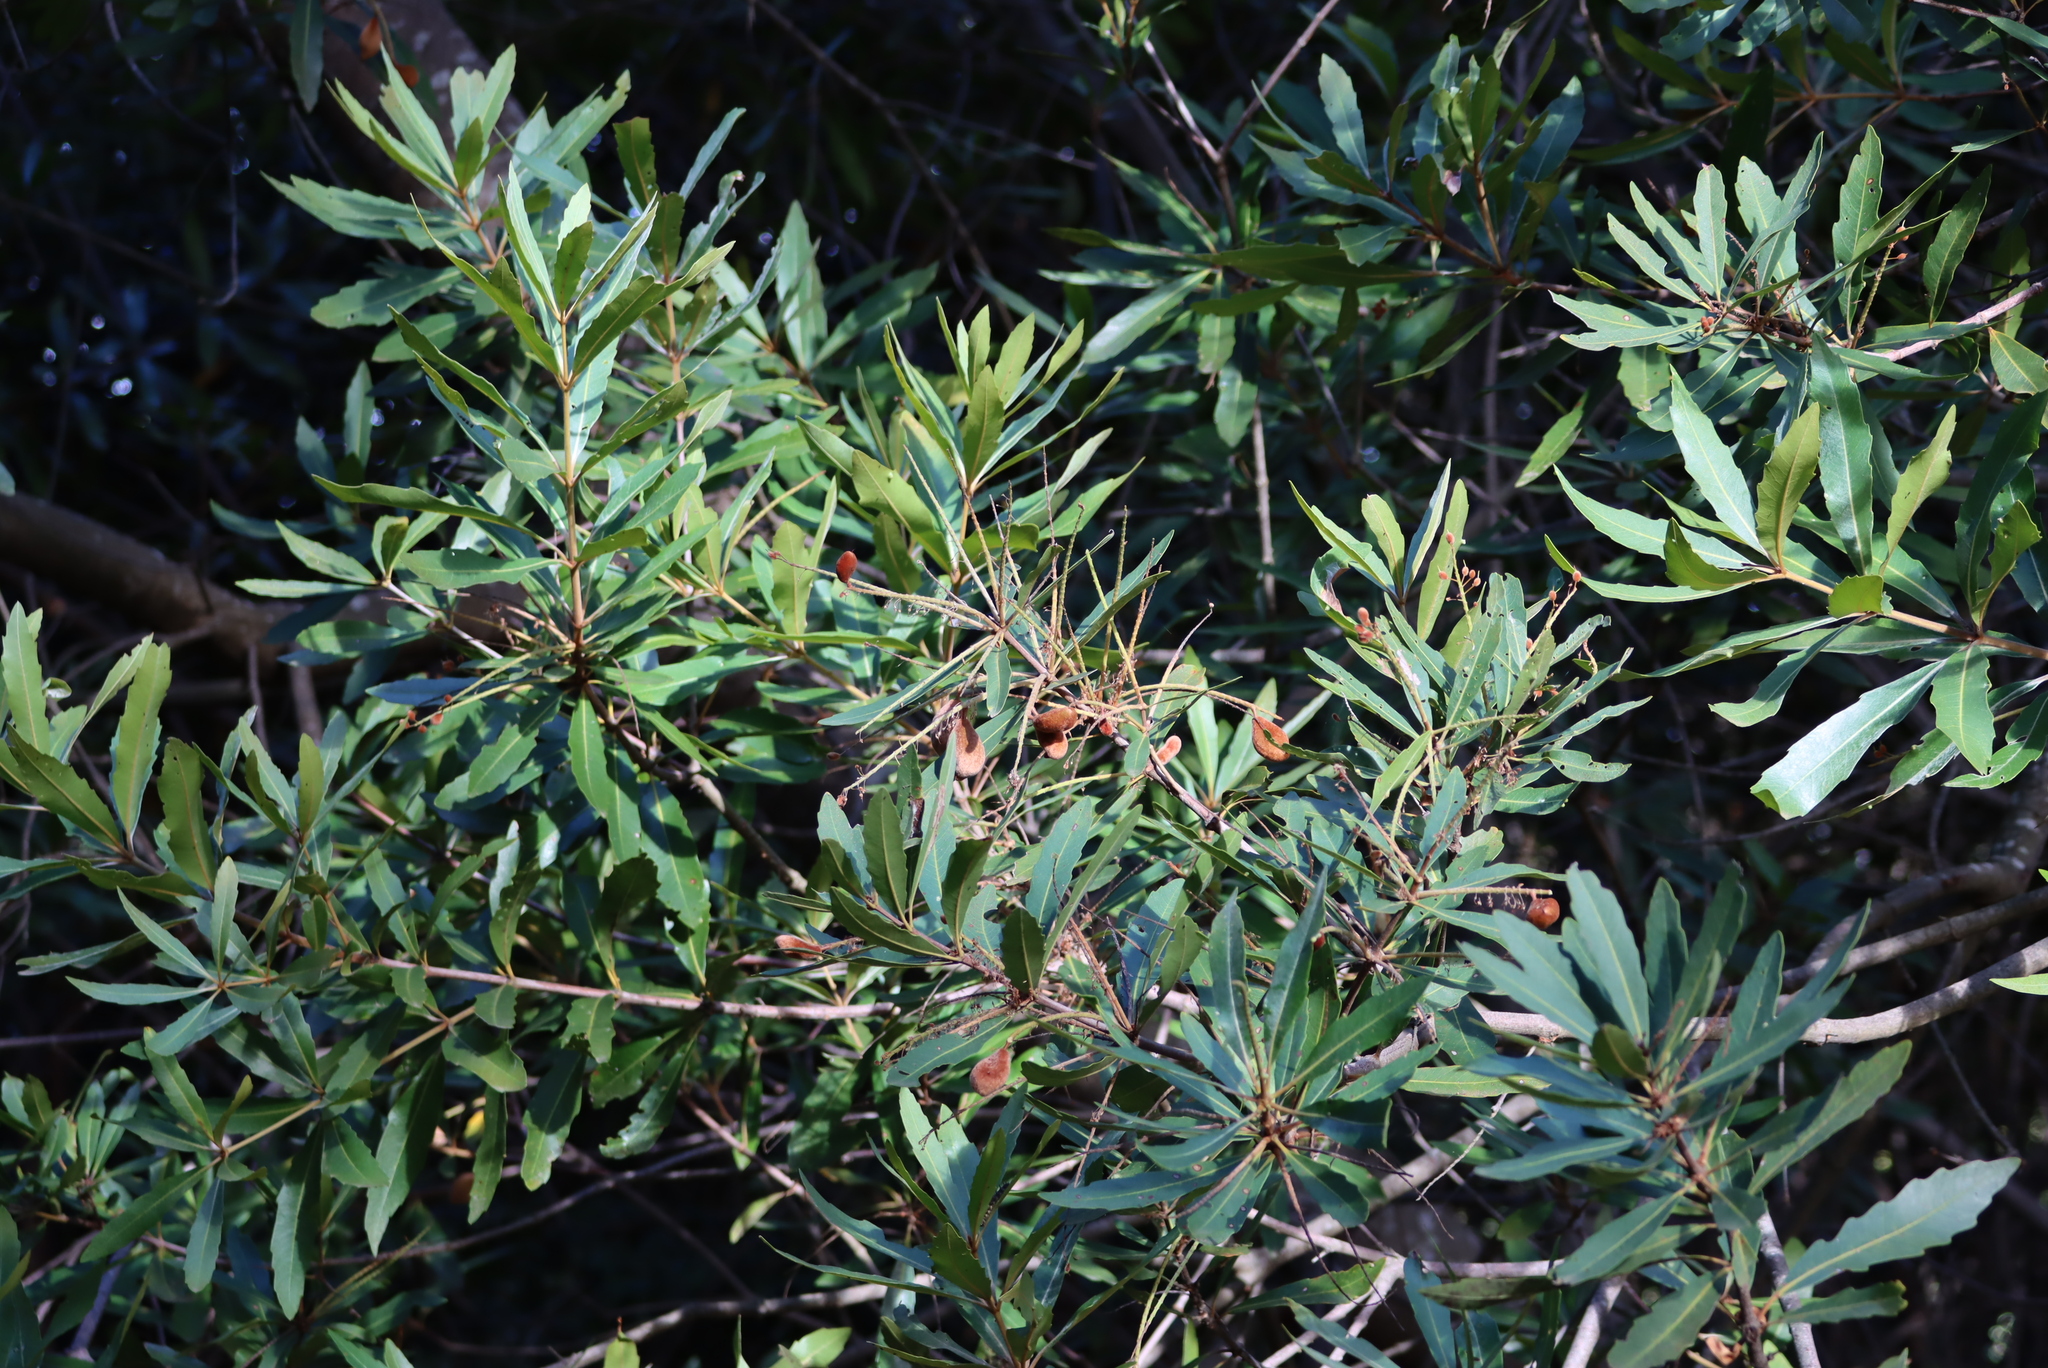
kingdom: Plantae
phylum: Tracheophyta
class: Magnoliopsida
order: Proteales
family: Proteaceae
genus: Brabejum
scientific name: Brabejum stellatifolium
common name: Wild almond
